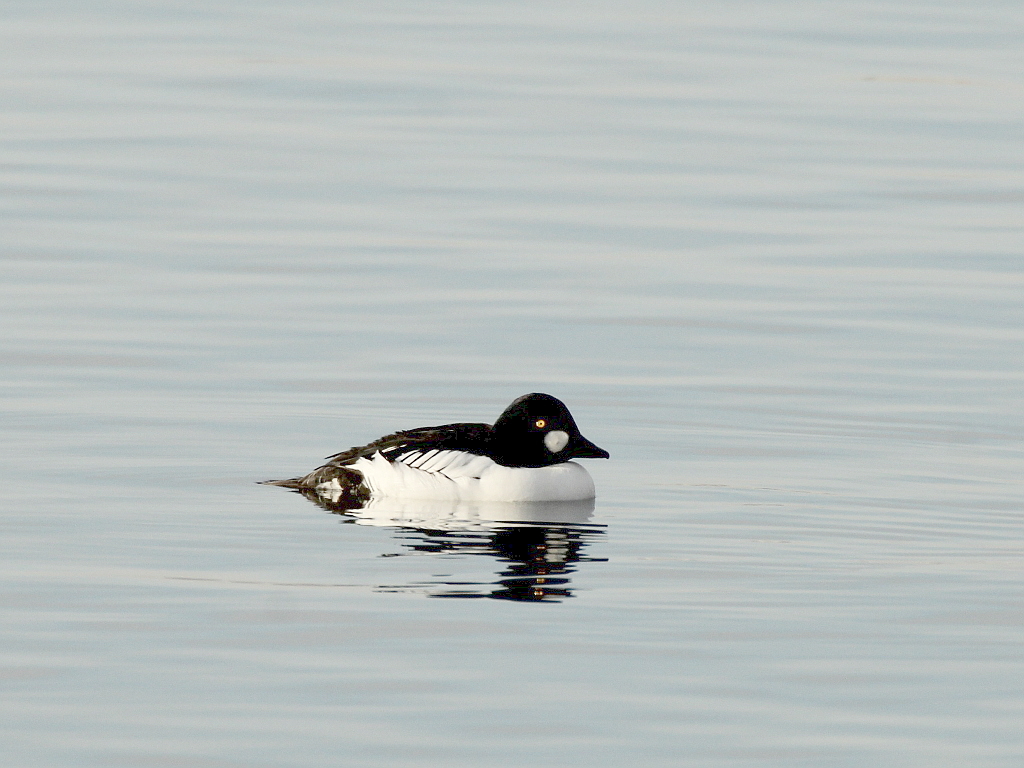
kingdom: Animalia
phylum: Chordata
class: Aves
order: Anseriformes
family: Anatidae
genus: Bucephala
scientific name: Bucephala clangula
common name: Common goldeneye
